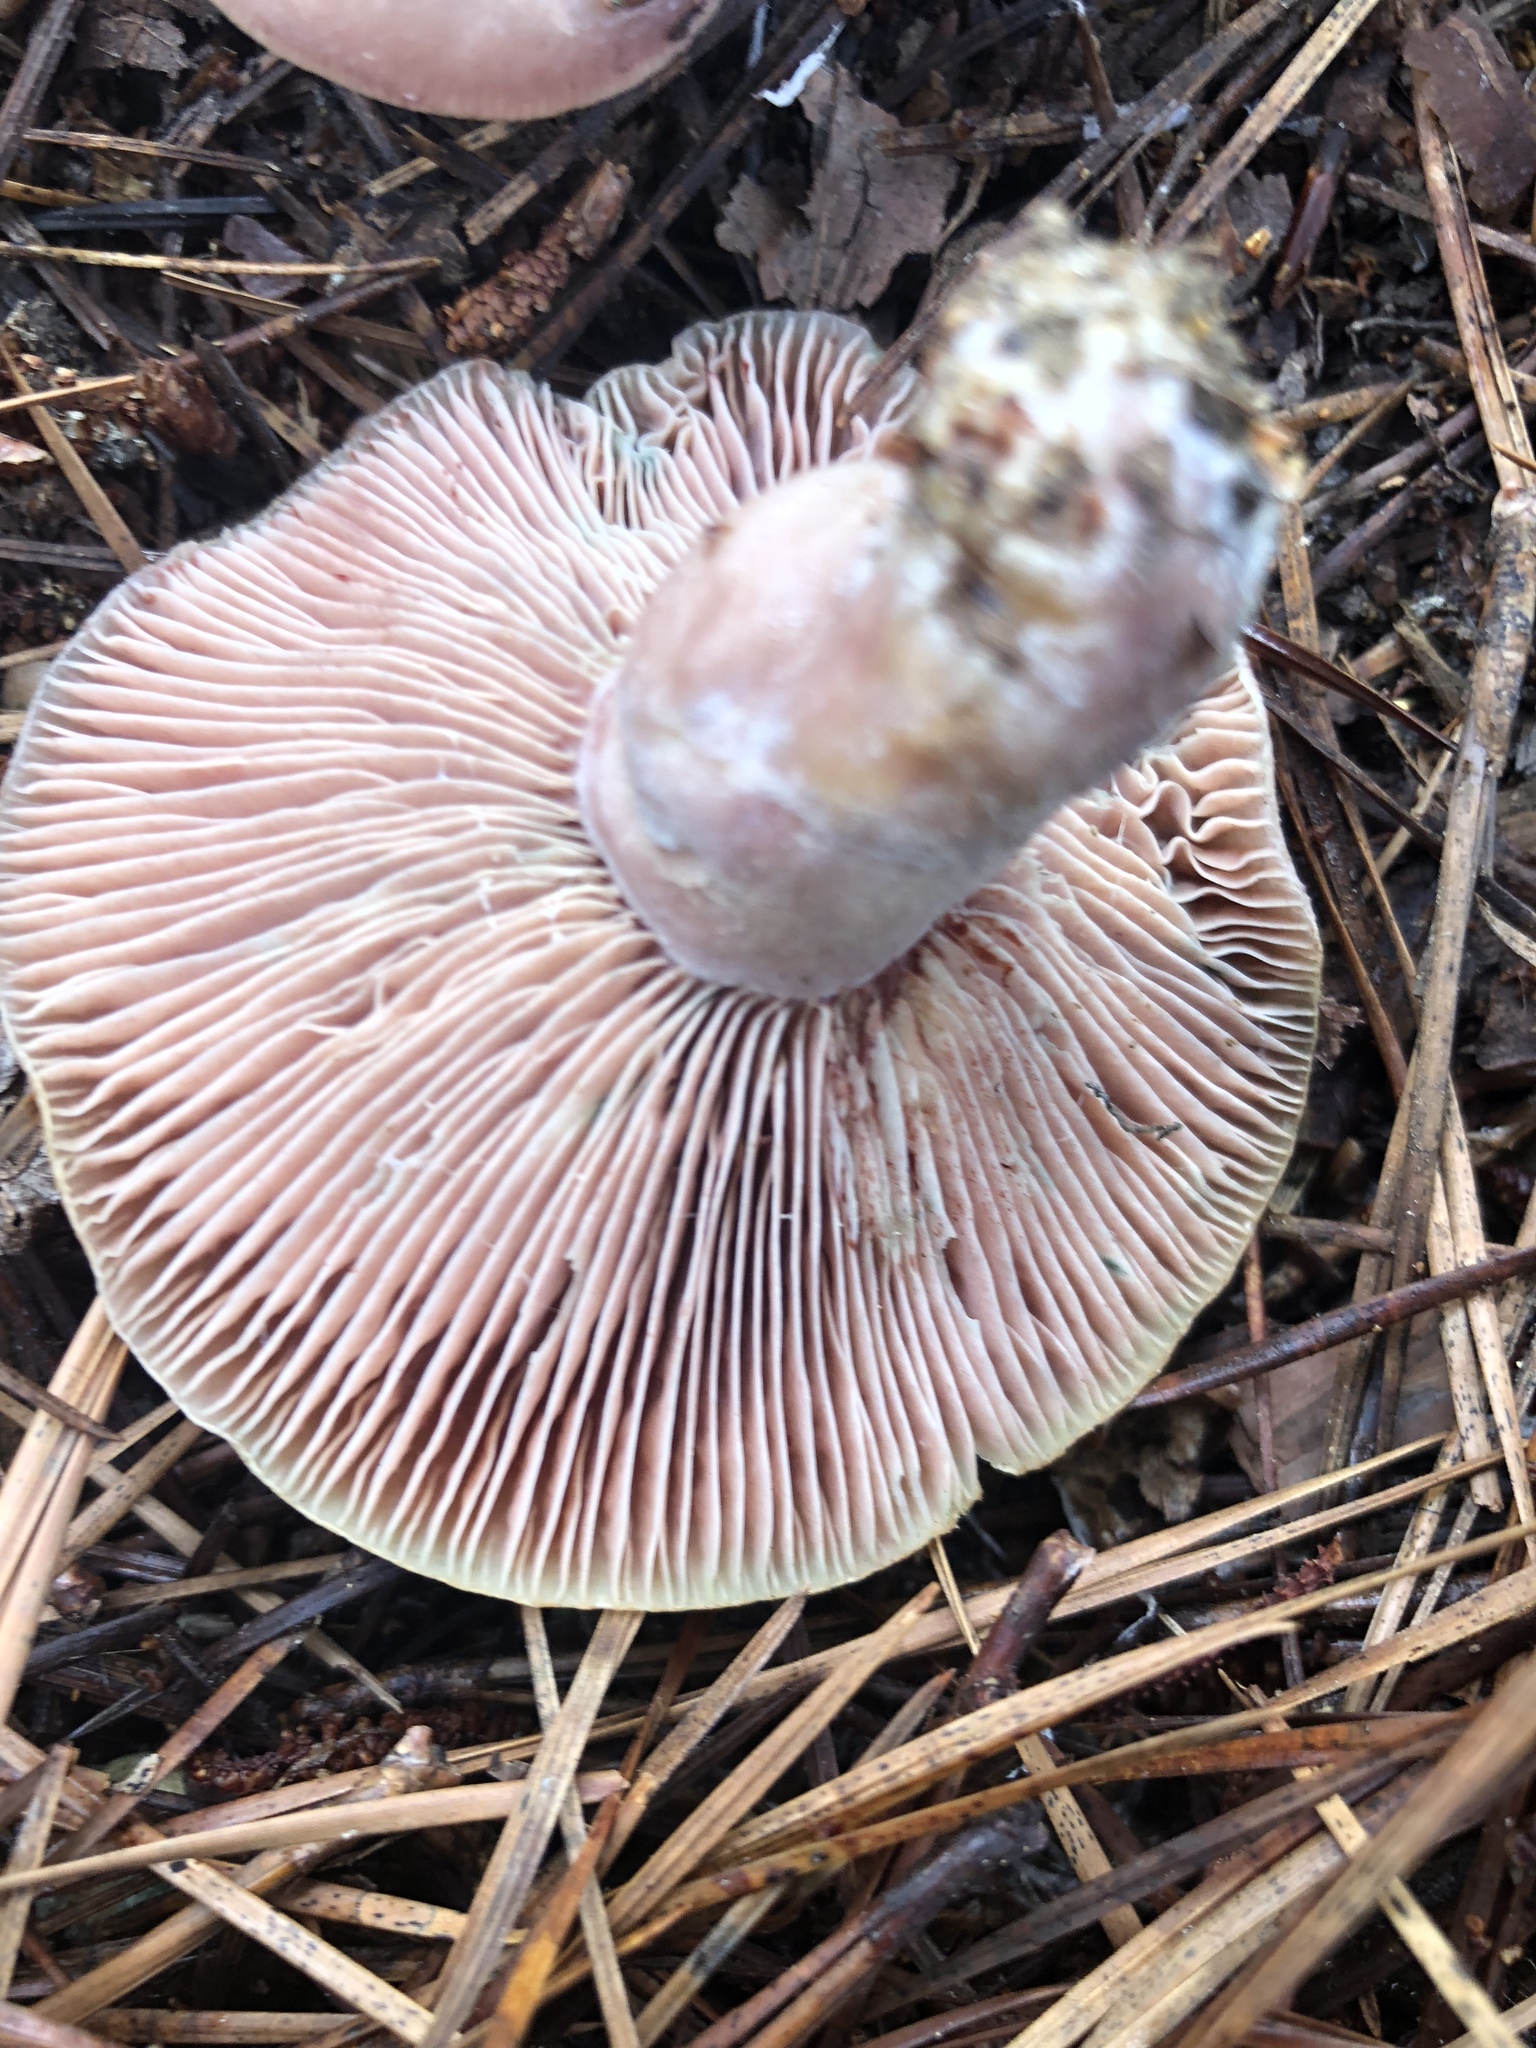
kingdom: Fungi
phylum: Basidiomycota
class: Agaricomycetes
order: Russulales
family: Russulaceae
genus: Lactarius
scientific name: Lactarius paradoxus
